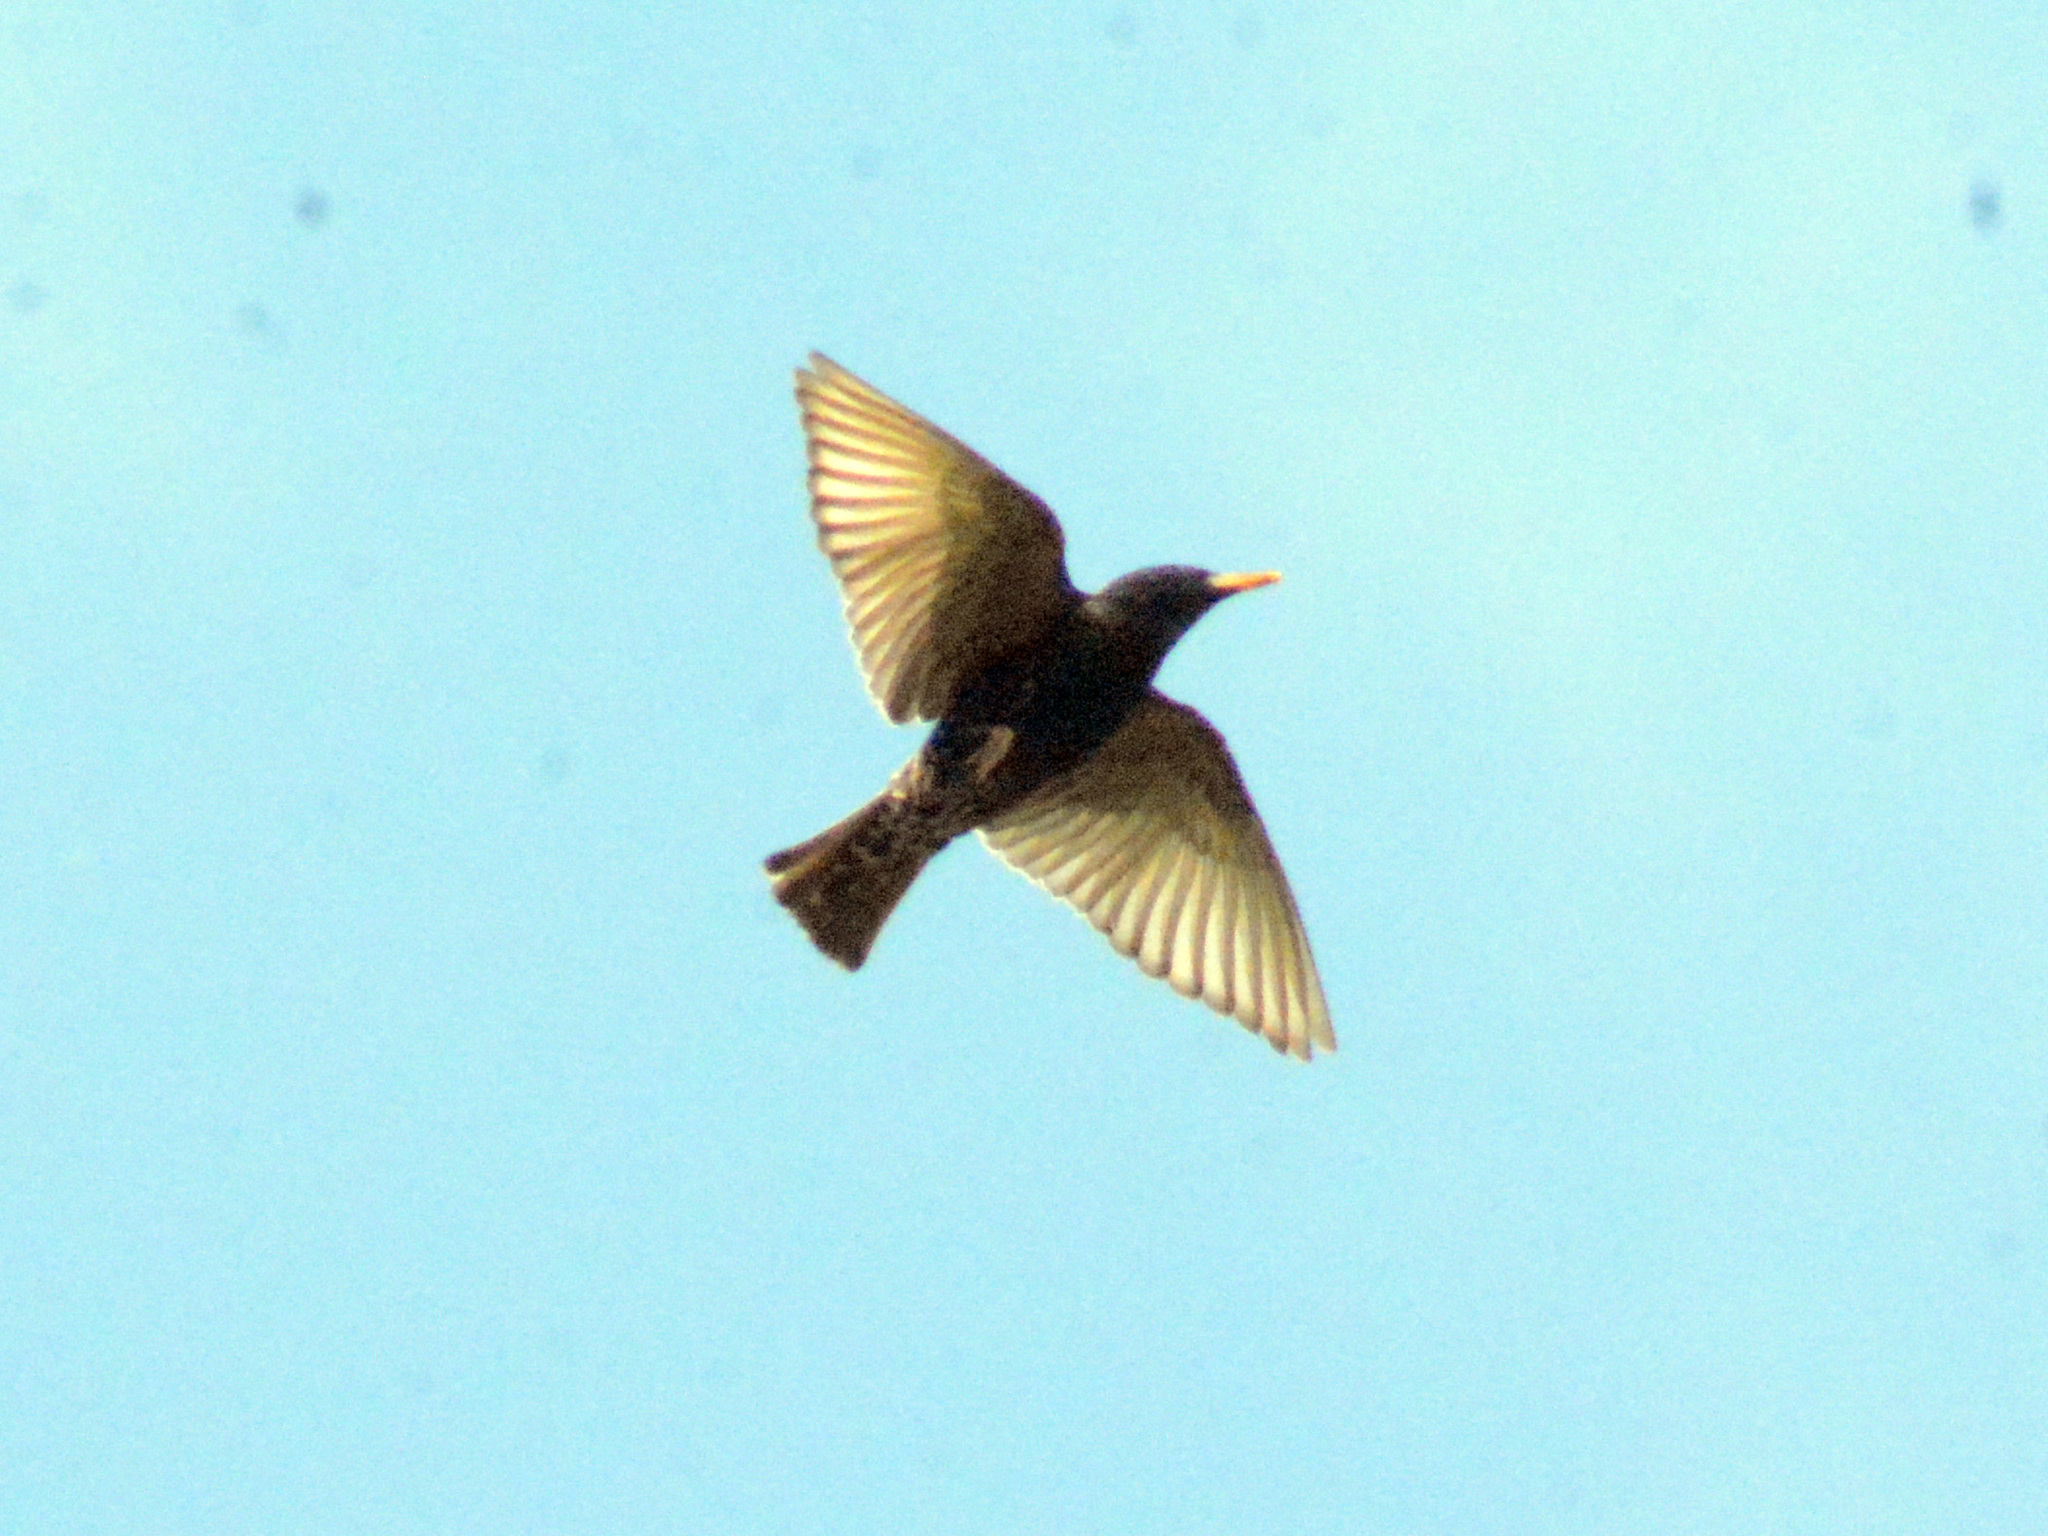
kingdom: Animalia
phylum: Chordata
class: Aves
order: Passeriformes
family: Sturnidae
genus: Sturnus
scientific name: Sturnus vulgaris
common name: Common starling
